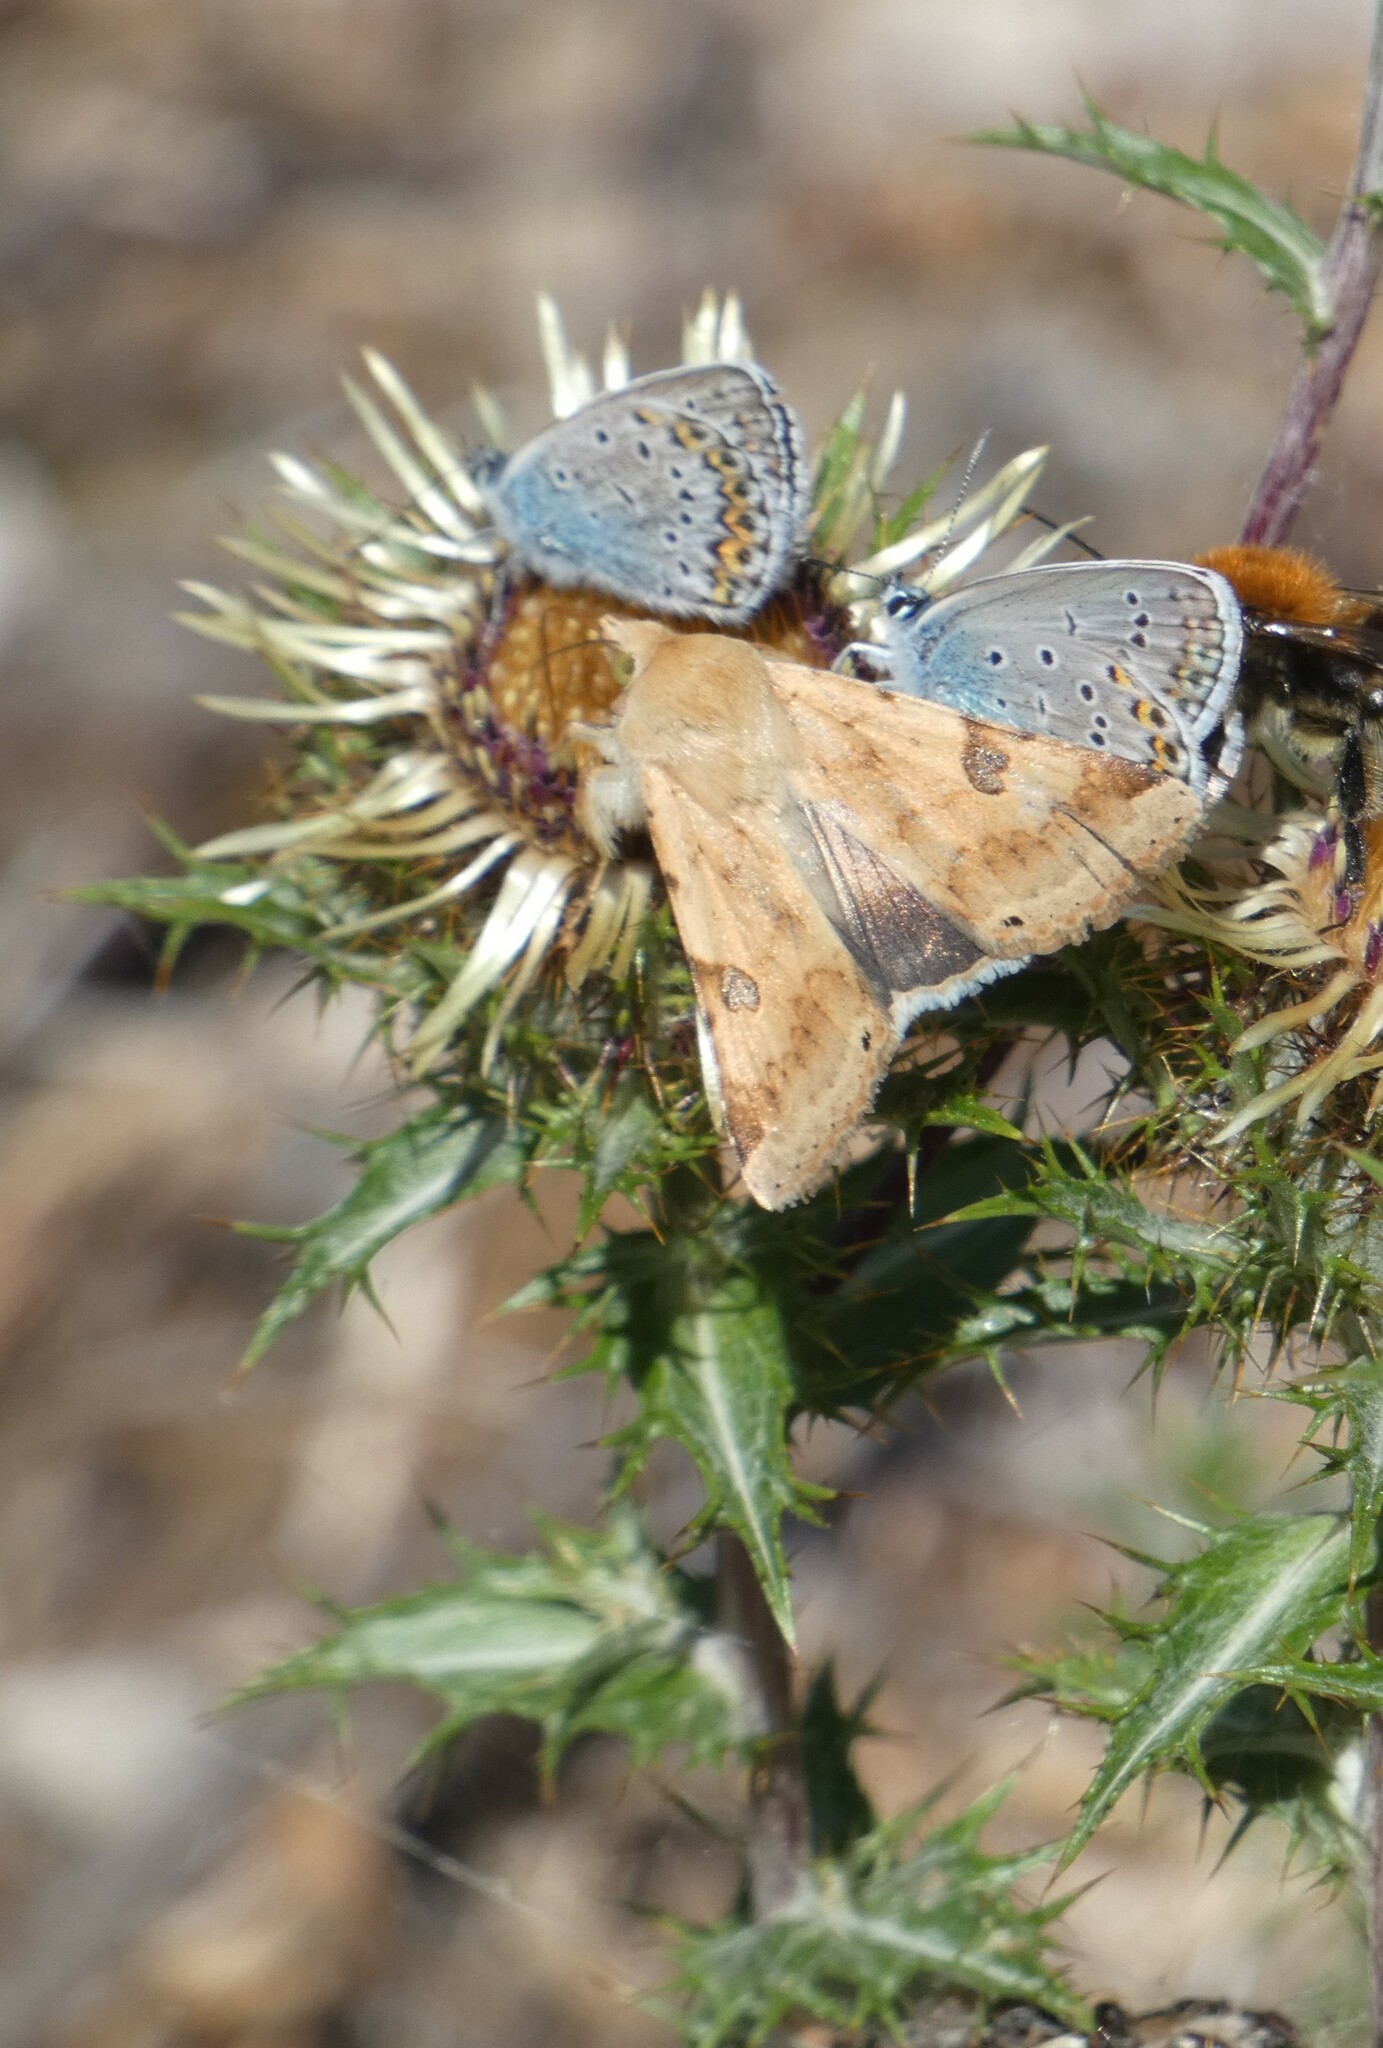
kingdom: Animalia
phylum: Arthropoda
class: Insecta
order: Lepidoptera
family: Noctuidae
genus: Heliothis
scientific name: Heliothis peltigera
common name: Bordered straw
